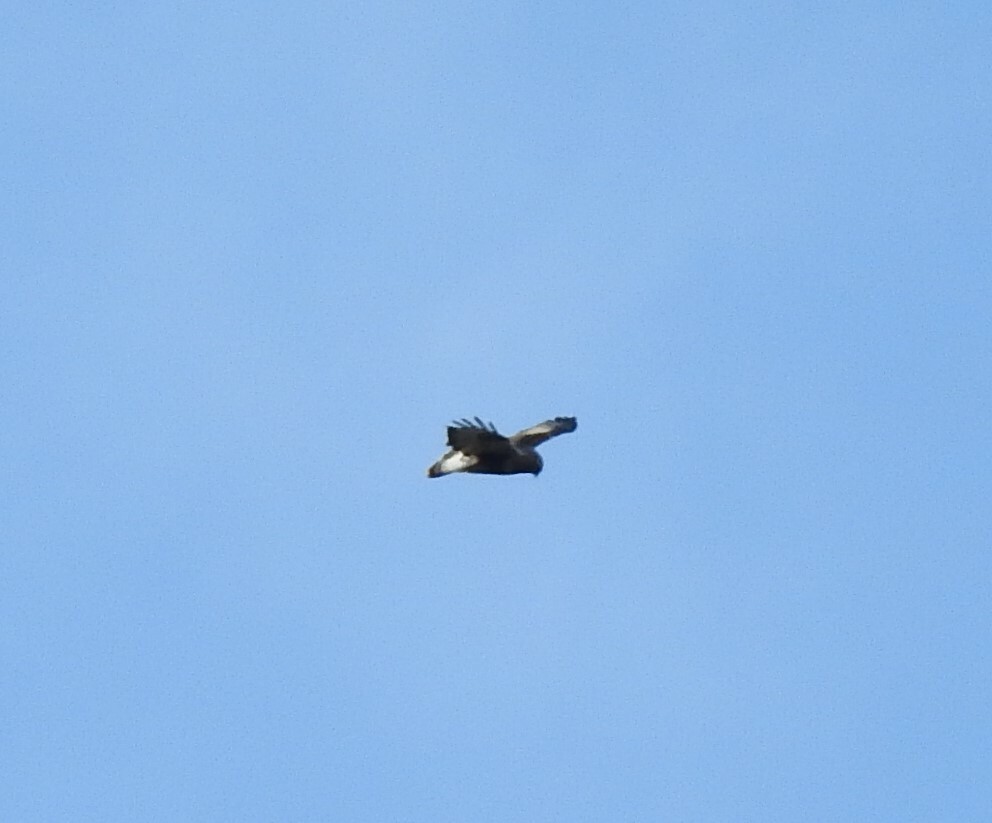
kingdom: Animalia
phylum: Chordata
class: Aves
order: Accipitriformes
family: Accipitridae
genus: Buteo
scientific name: Buteo lagopus
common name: Rough-legged buzzard
